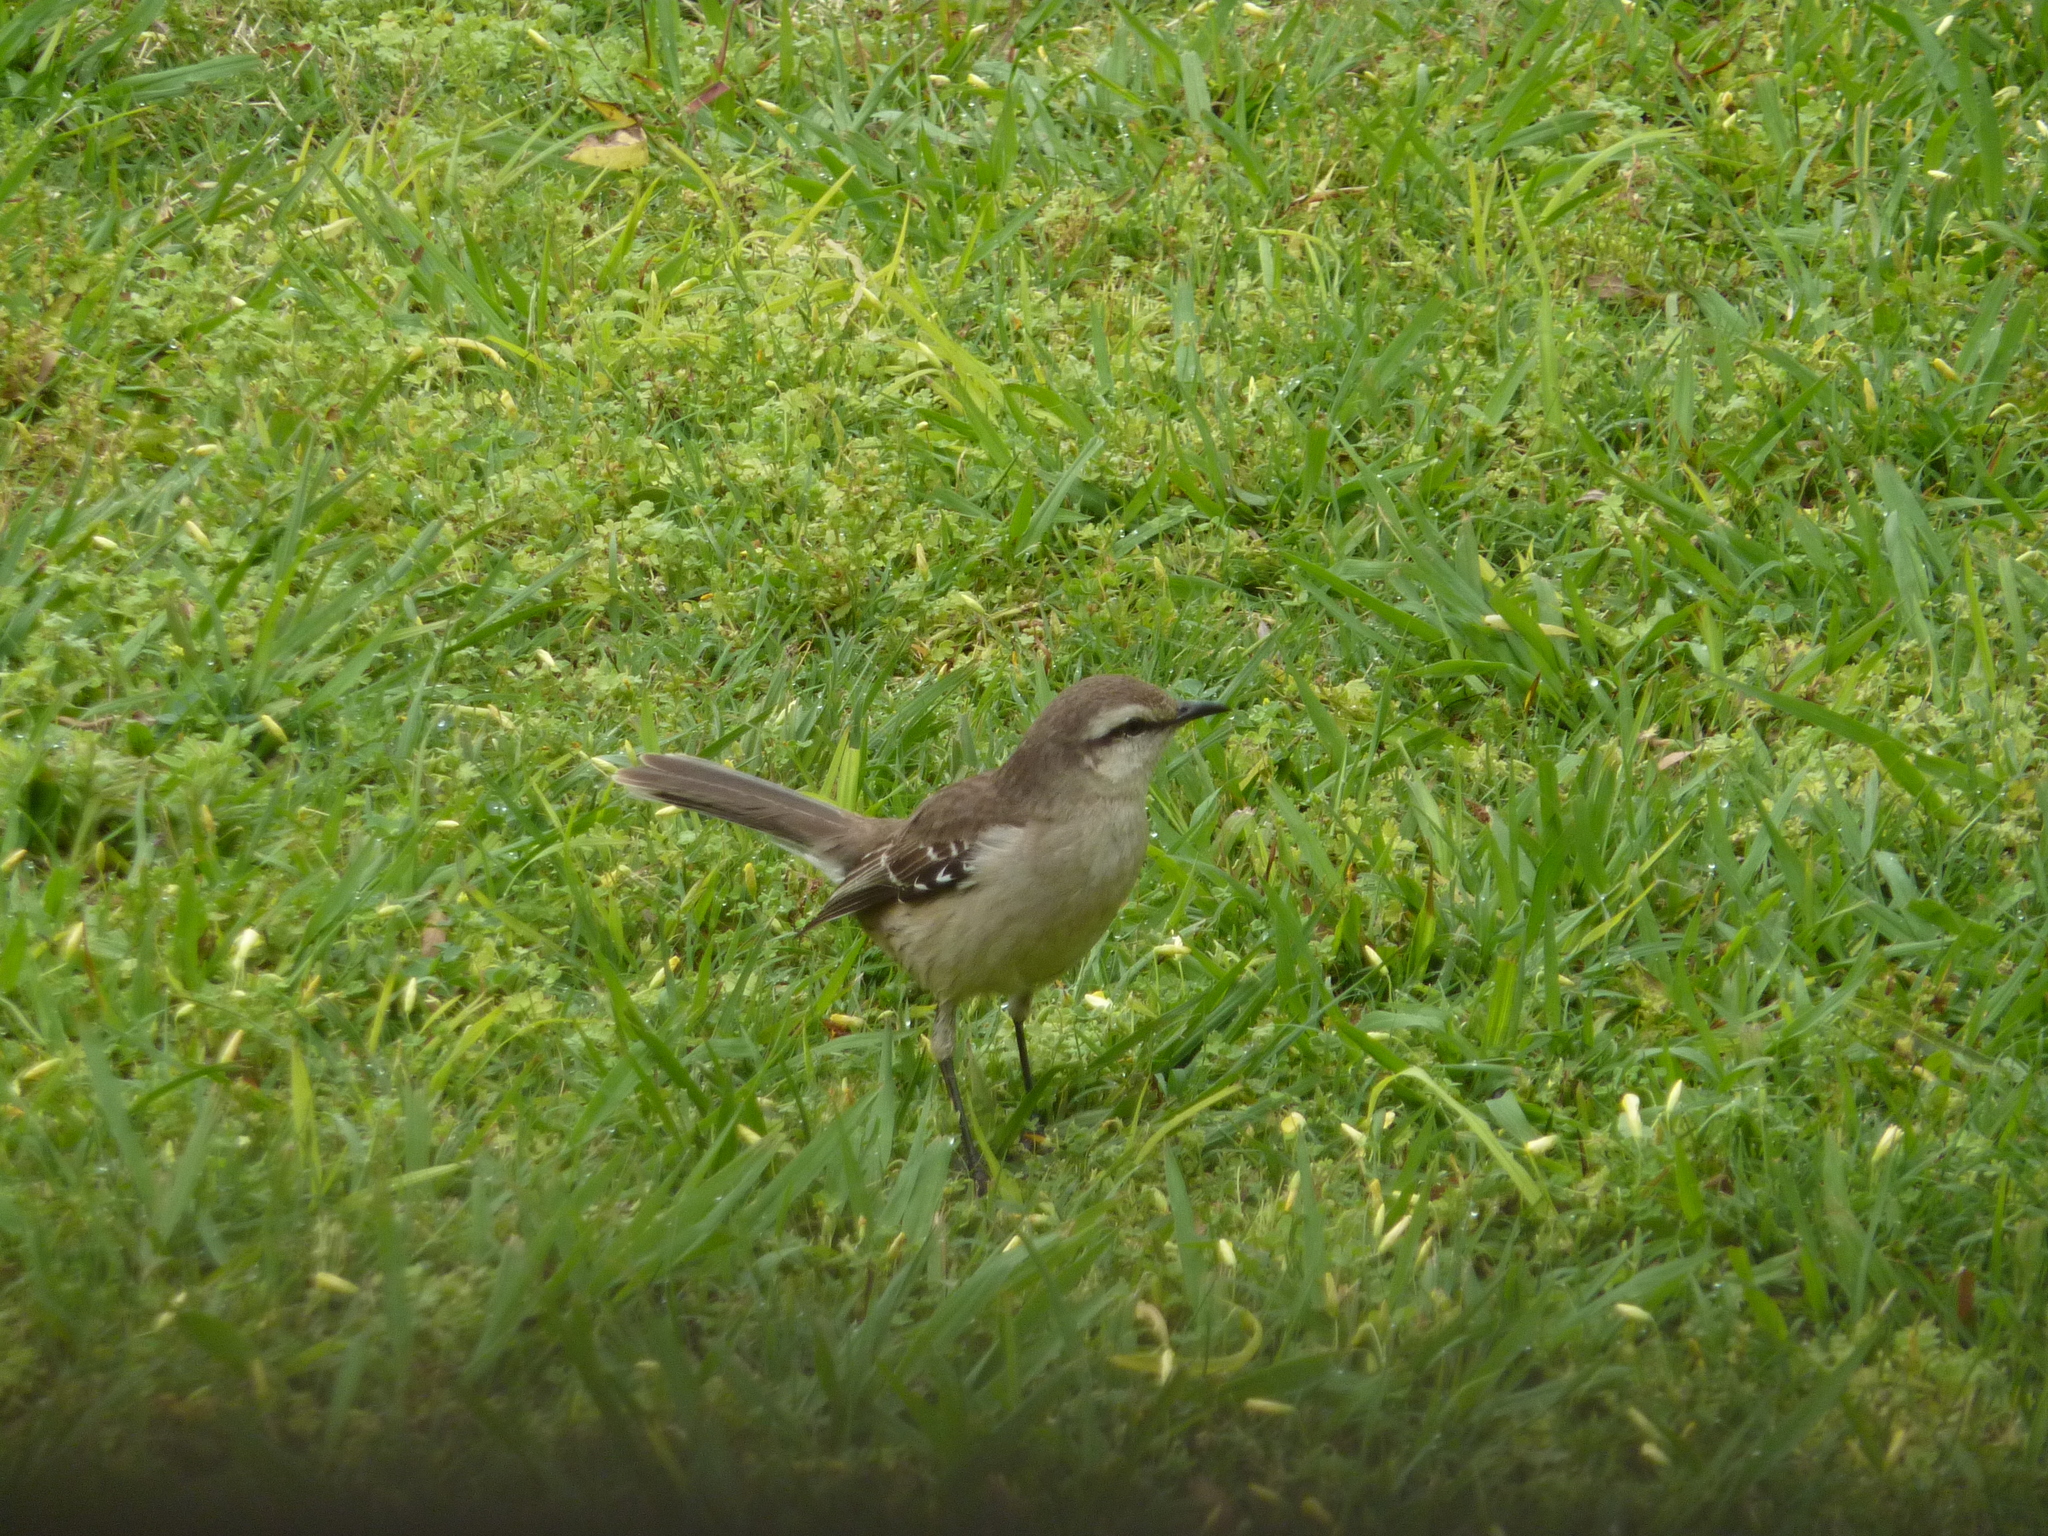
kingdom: Animalia
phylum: Chordata
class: Aves
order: Passeriformes
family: Mimidae
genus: Mimus
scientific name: Mimus saturninus
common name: Chalk-browed mockingbird
